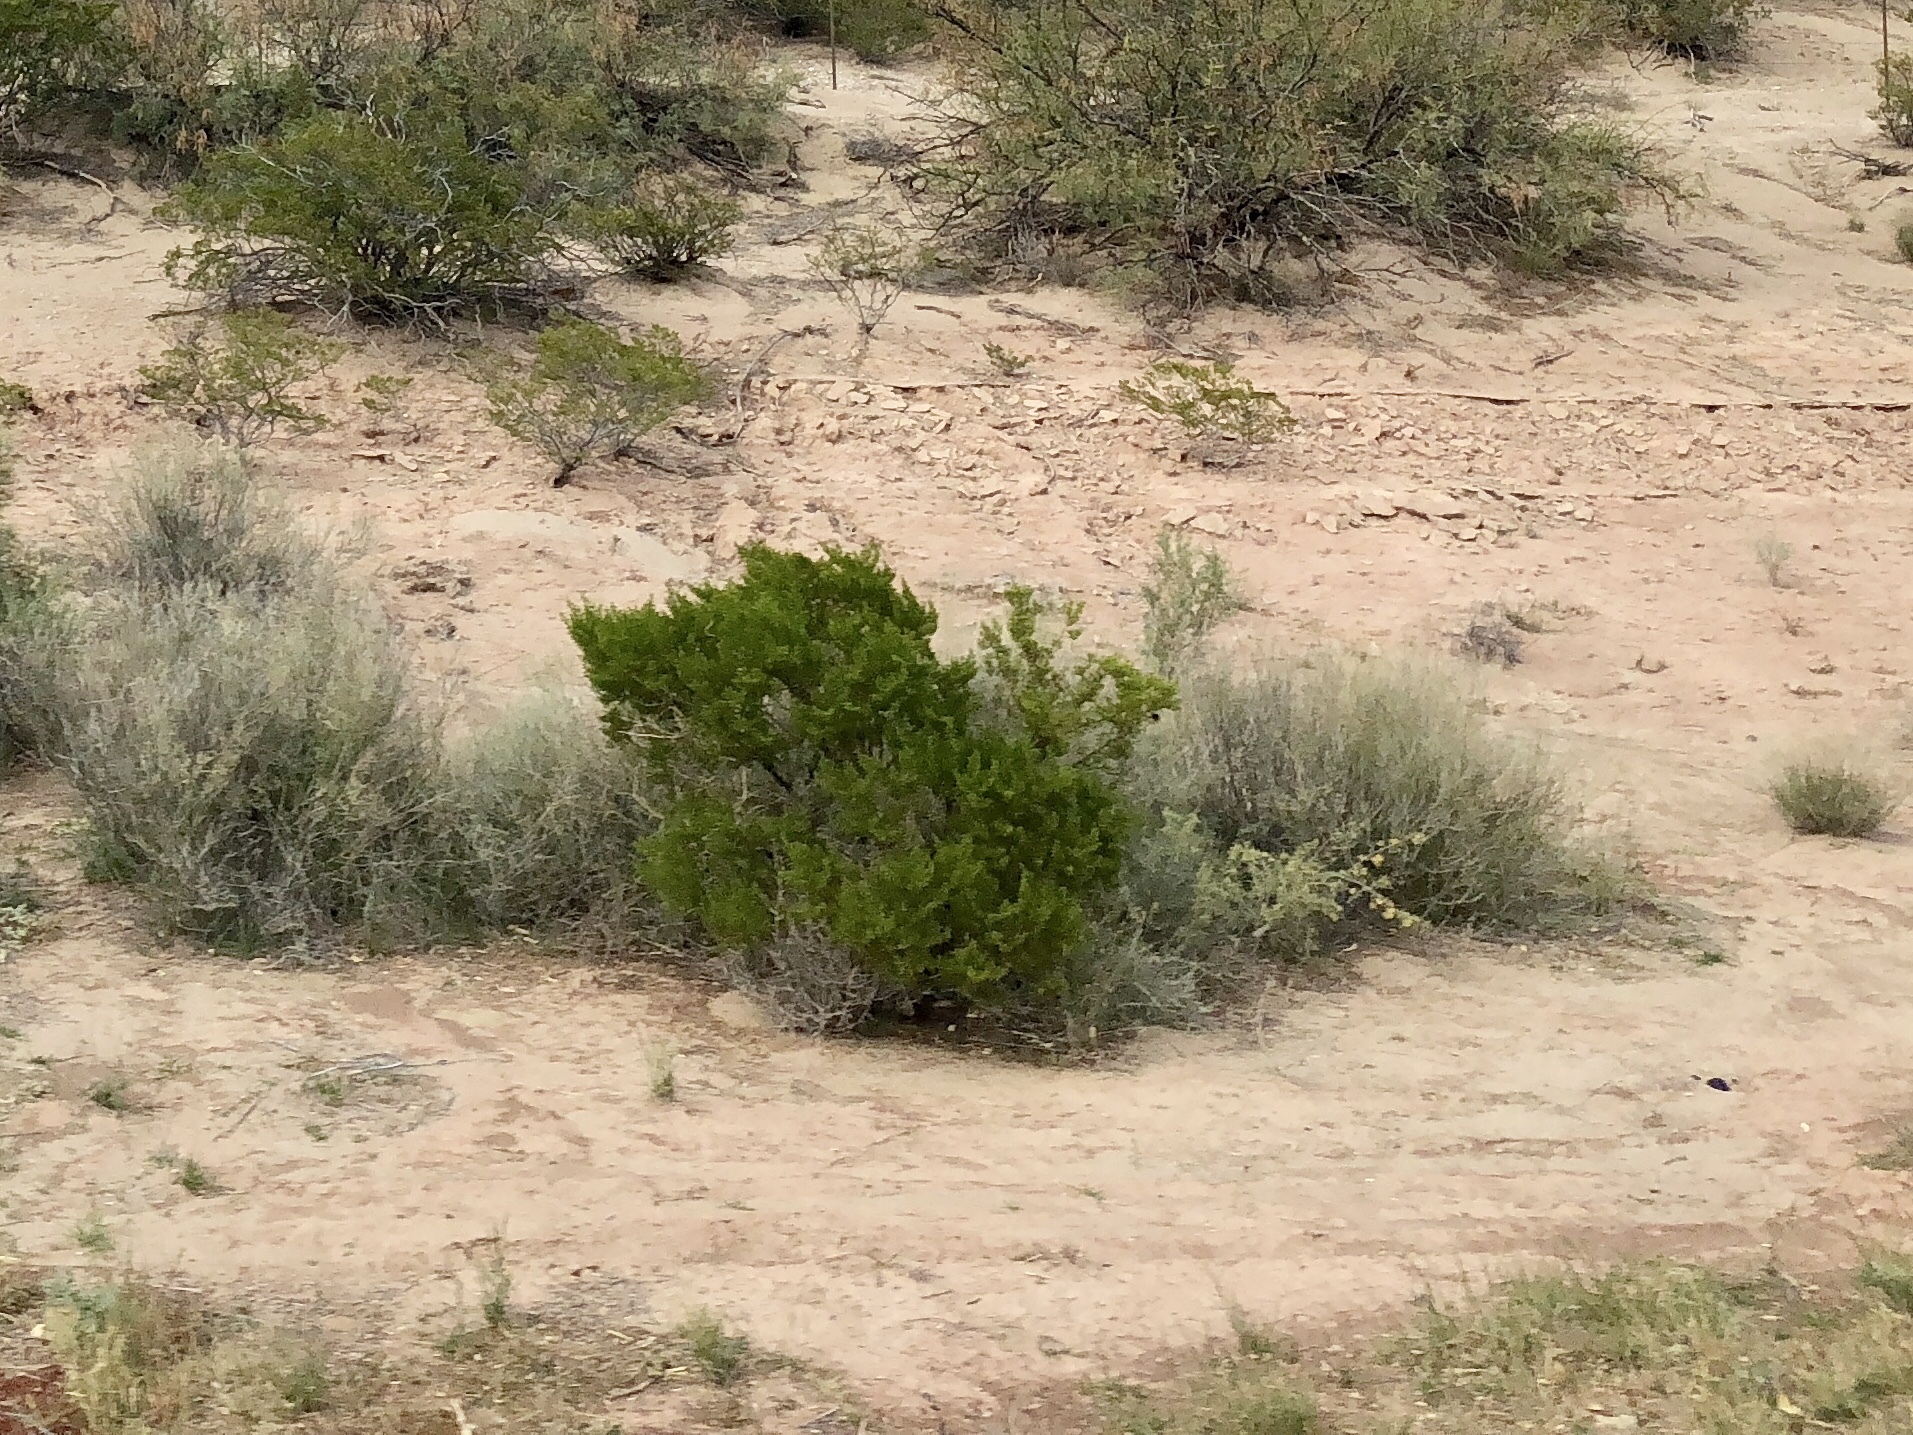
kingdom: Plantae
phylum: Tracheophyta
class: Magnoliopsida
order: Zygophyllales
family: Zygophyllaceae
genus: Larrea
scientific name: Larrea tridentata
